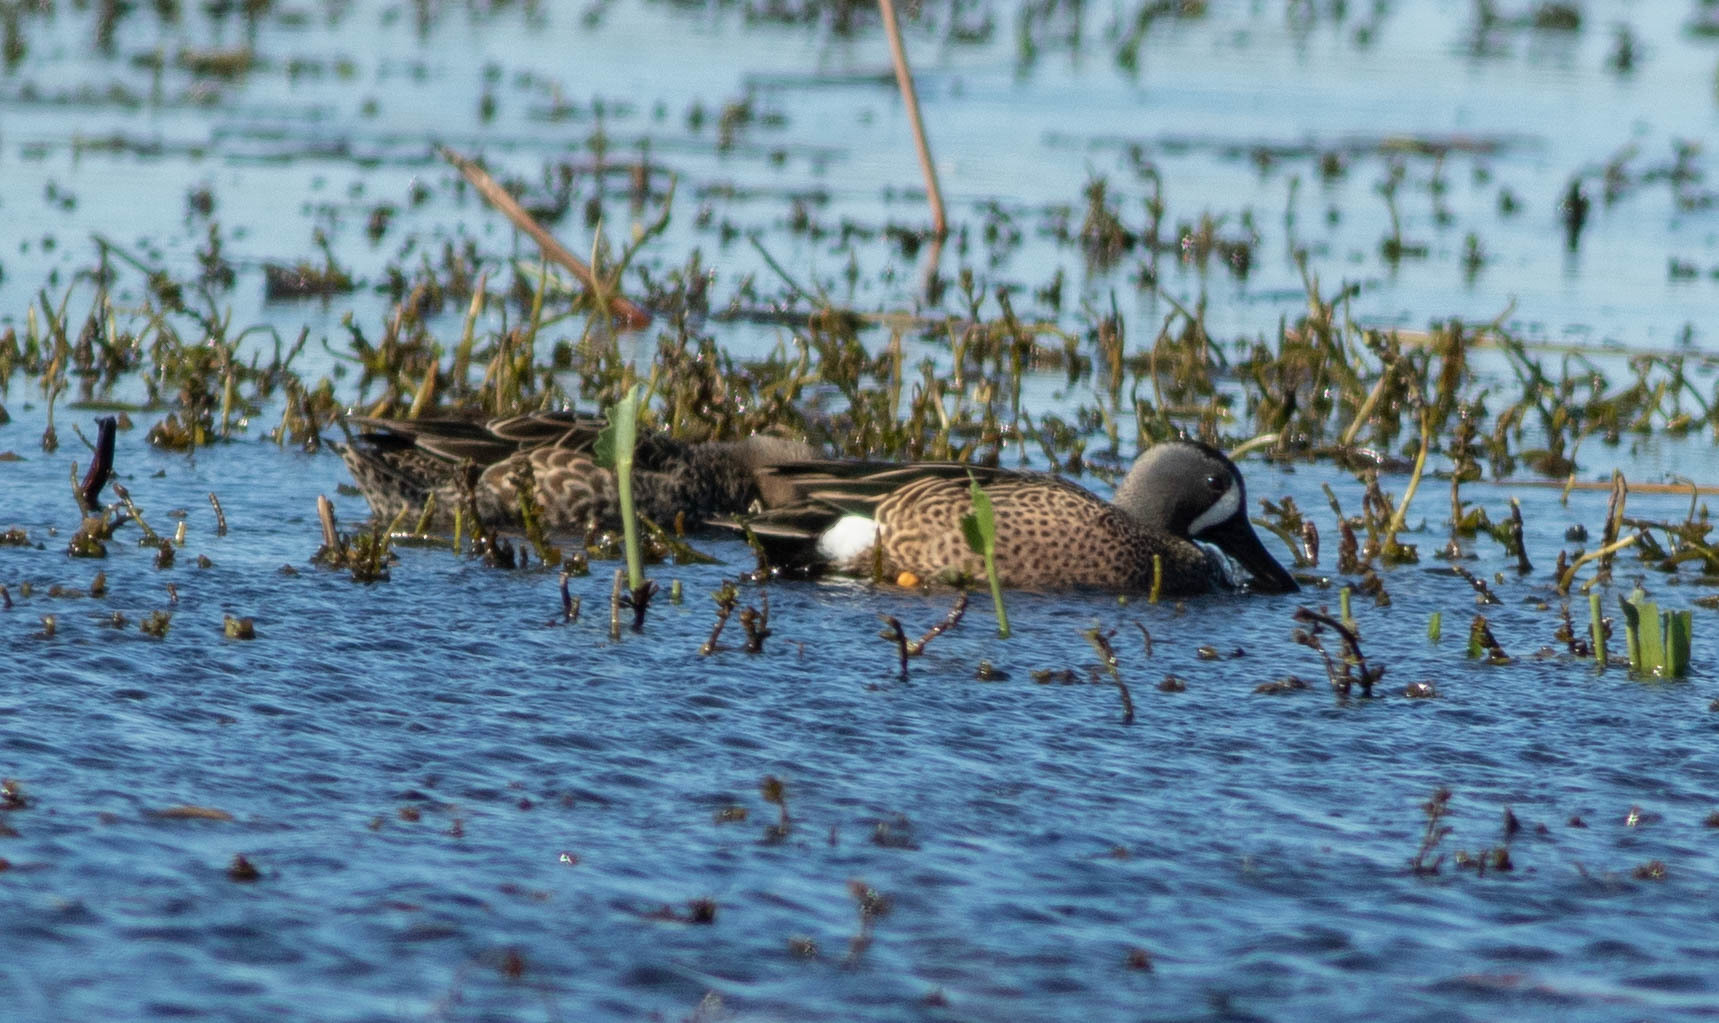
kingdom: Animalia
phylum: Chordata
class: Aves
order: Anseriformes
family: Anatidae
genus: Spatula
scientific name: Spatula discors
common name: Blue-winged teal
